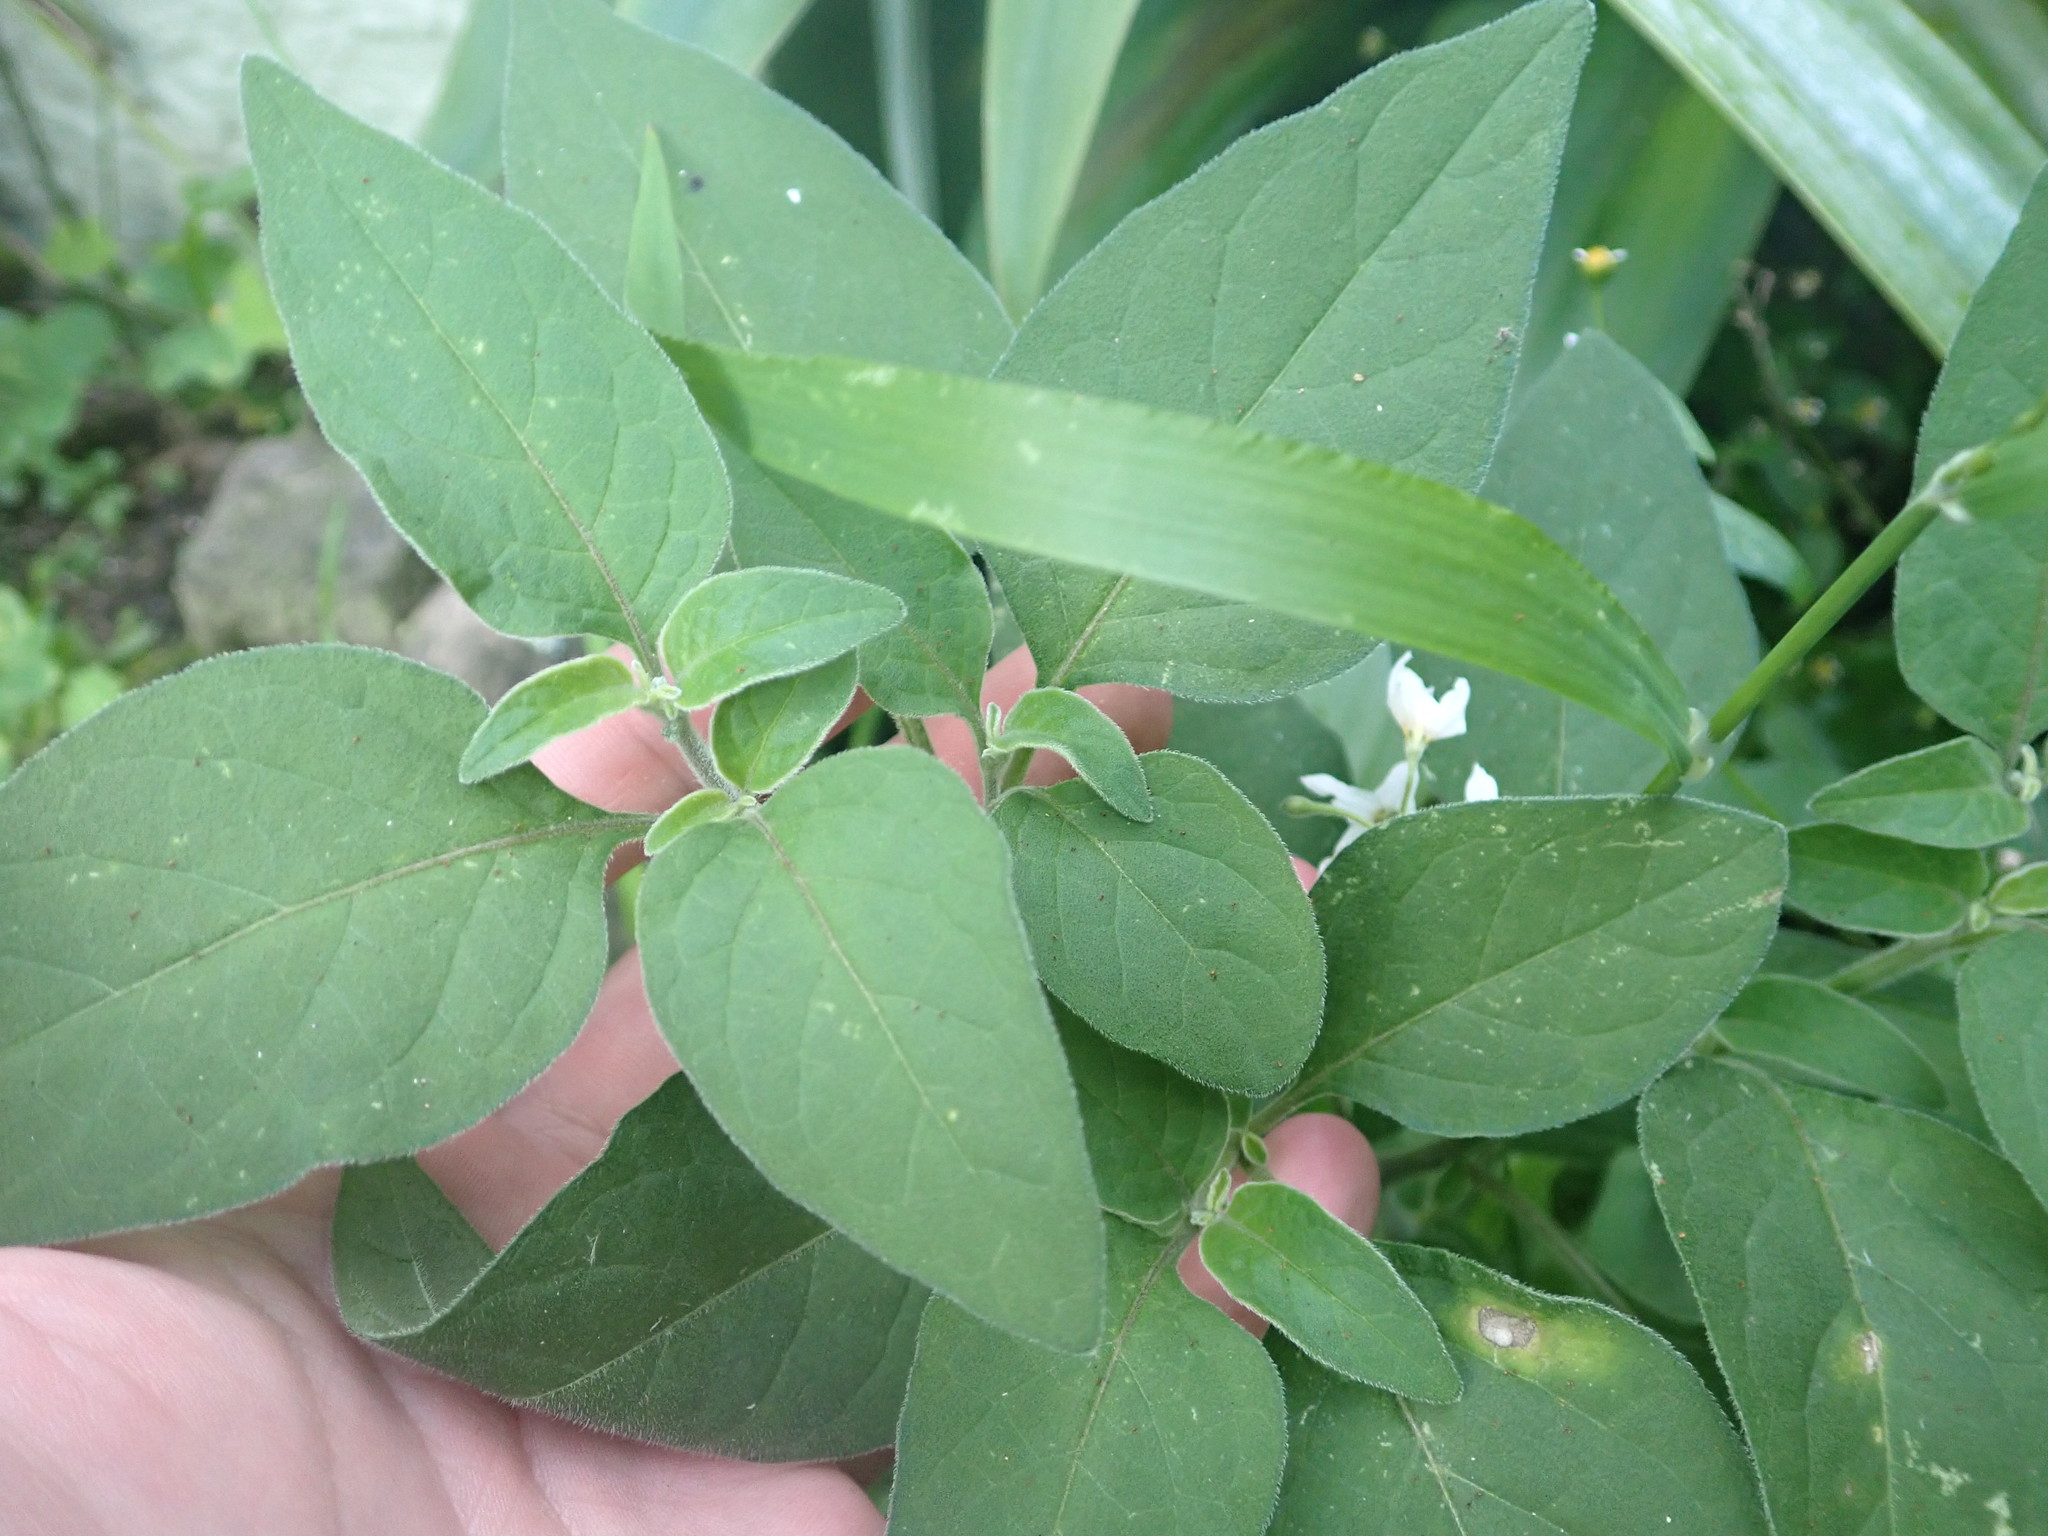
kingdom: Plantae
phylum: Tracheophyta
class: Magnoliopsida
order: Solanales
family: Solanaceae
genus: Solanum
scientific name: Solanum chenopodioides
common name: Tall nightshade
